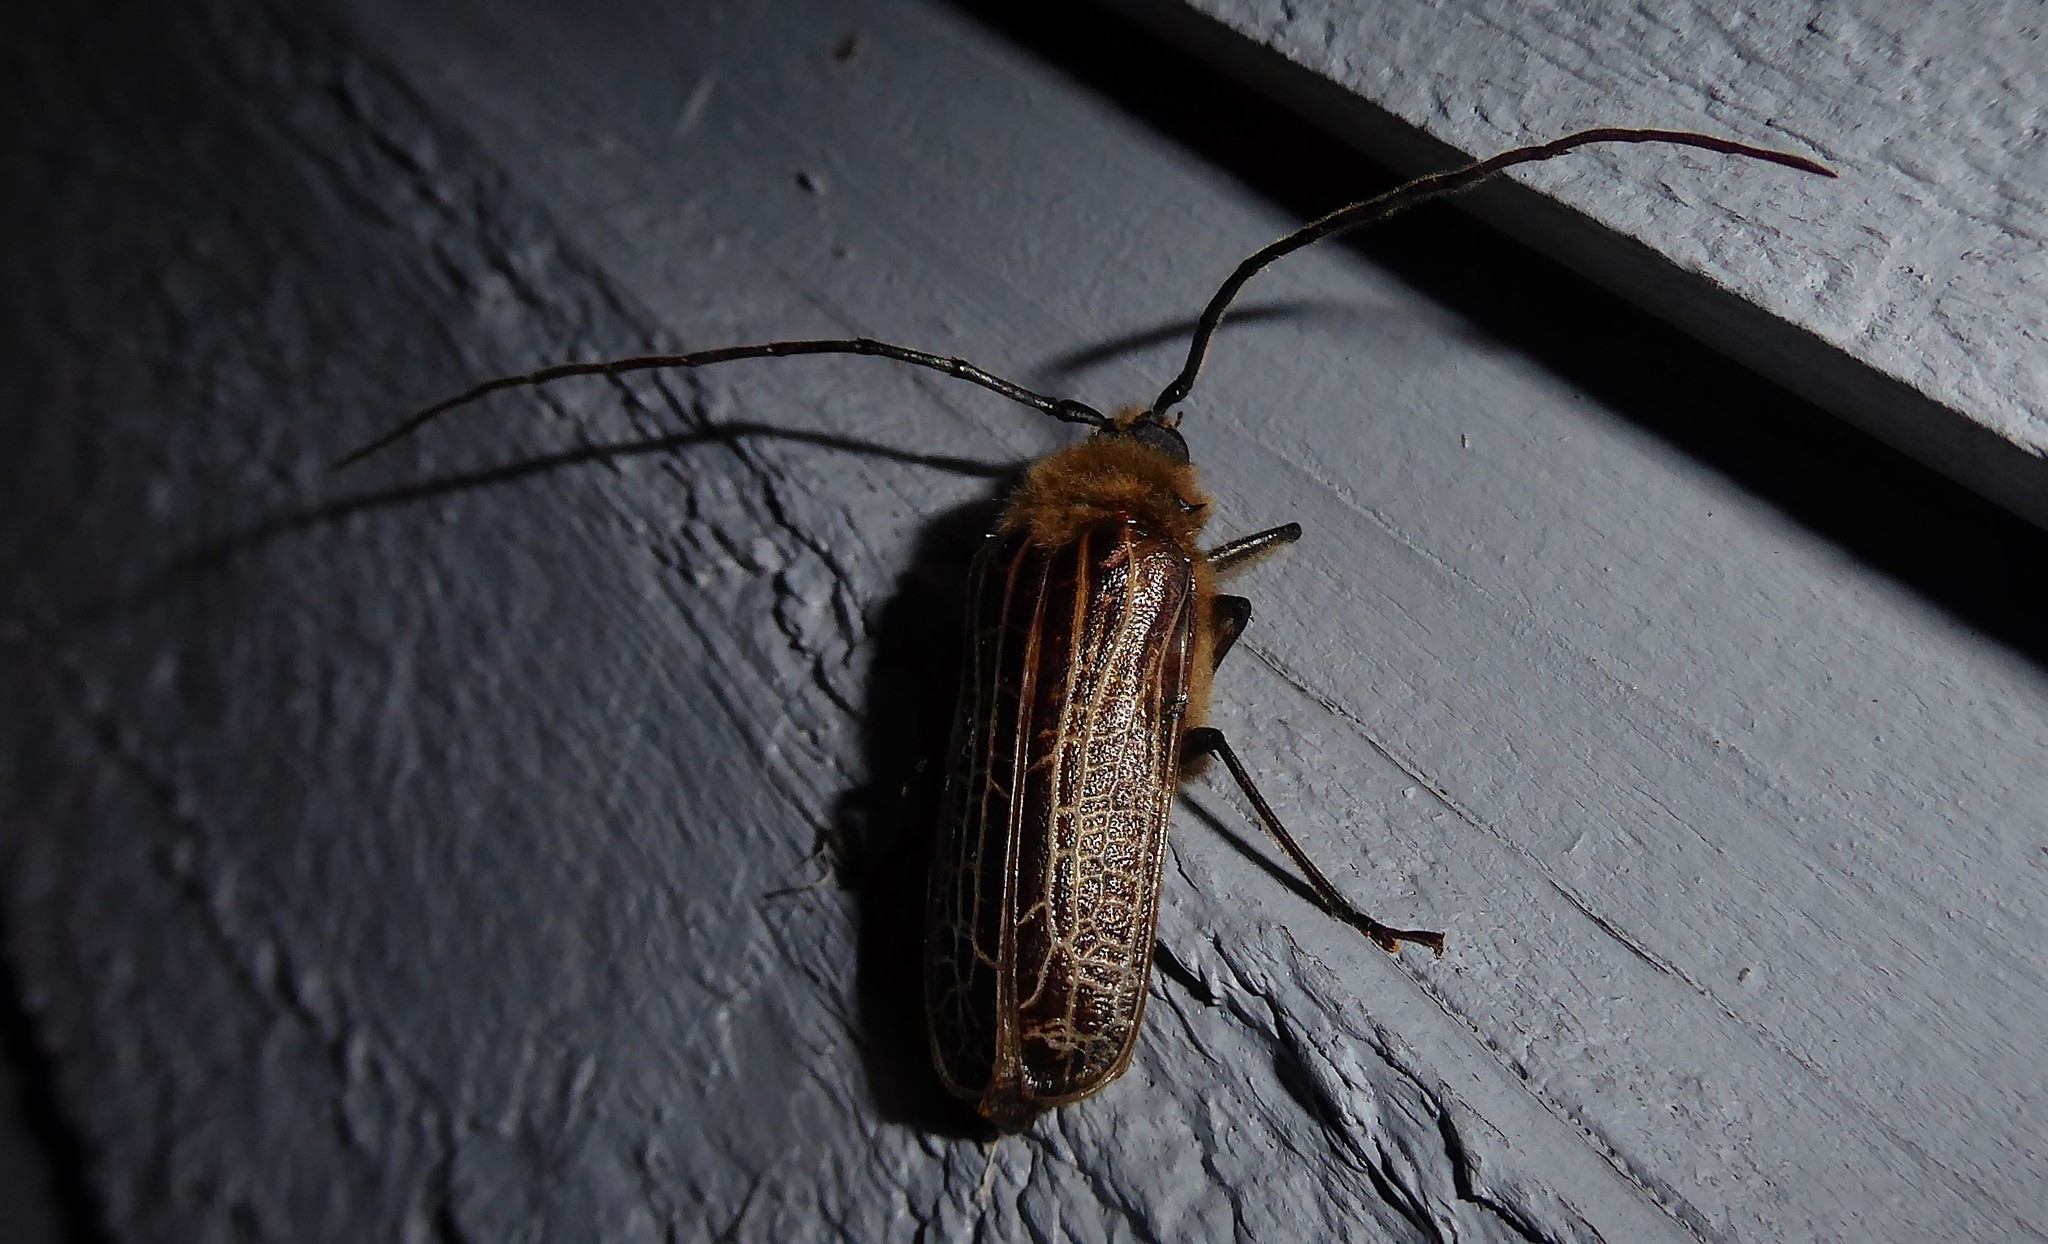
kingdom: Animalia
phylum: Arthropoda
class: Insecta
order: Coleoptera
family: Cerambycidae
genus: Prionoplus
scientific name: Prionoplus reticularis
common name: Huhu beetle
